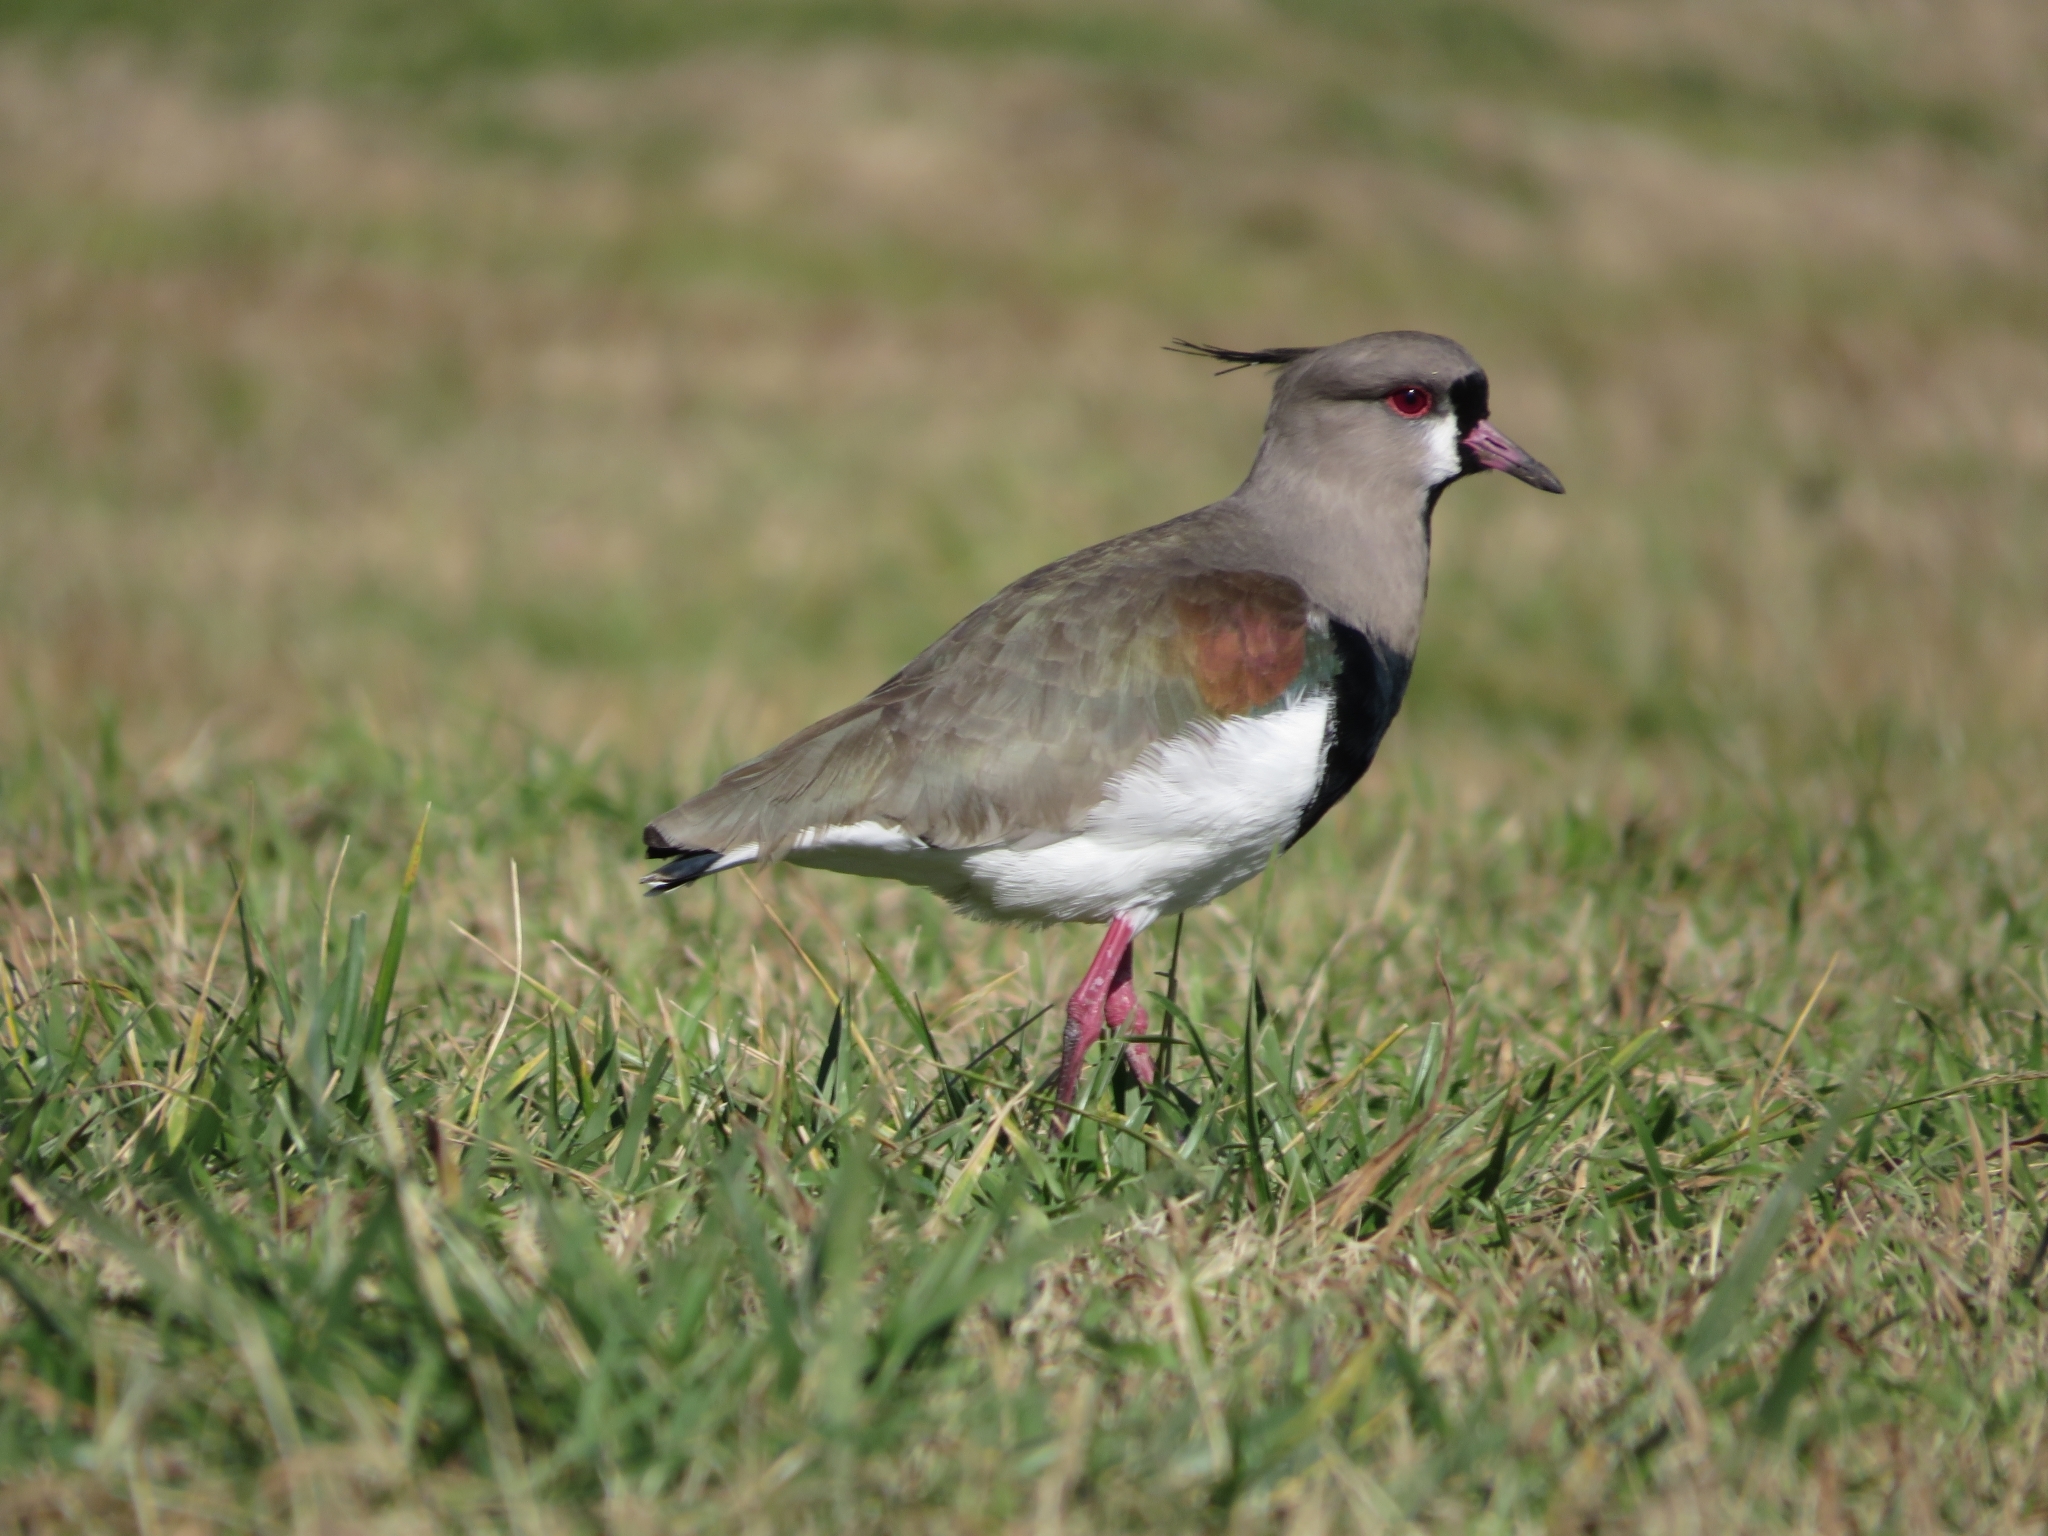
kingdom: Animalia
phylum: Chordata
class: Aves
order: Charadriiformes
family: Charadriidae
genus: Vanellus
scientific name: Vanellus chilensis
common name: Southern lapwing
